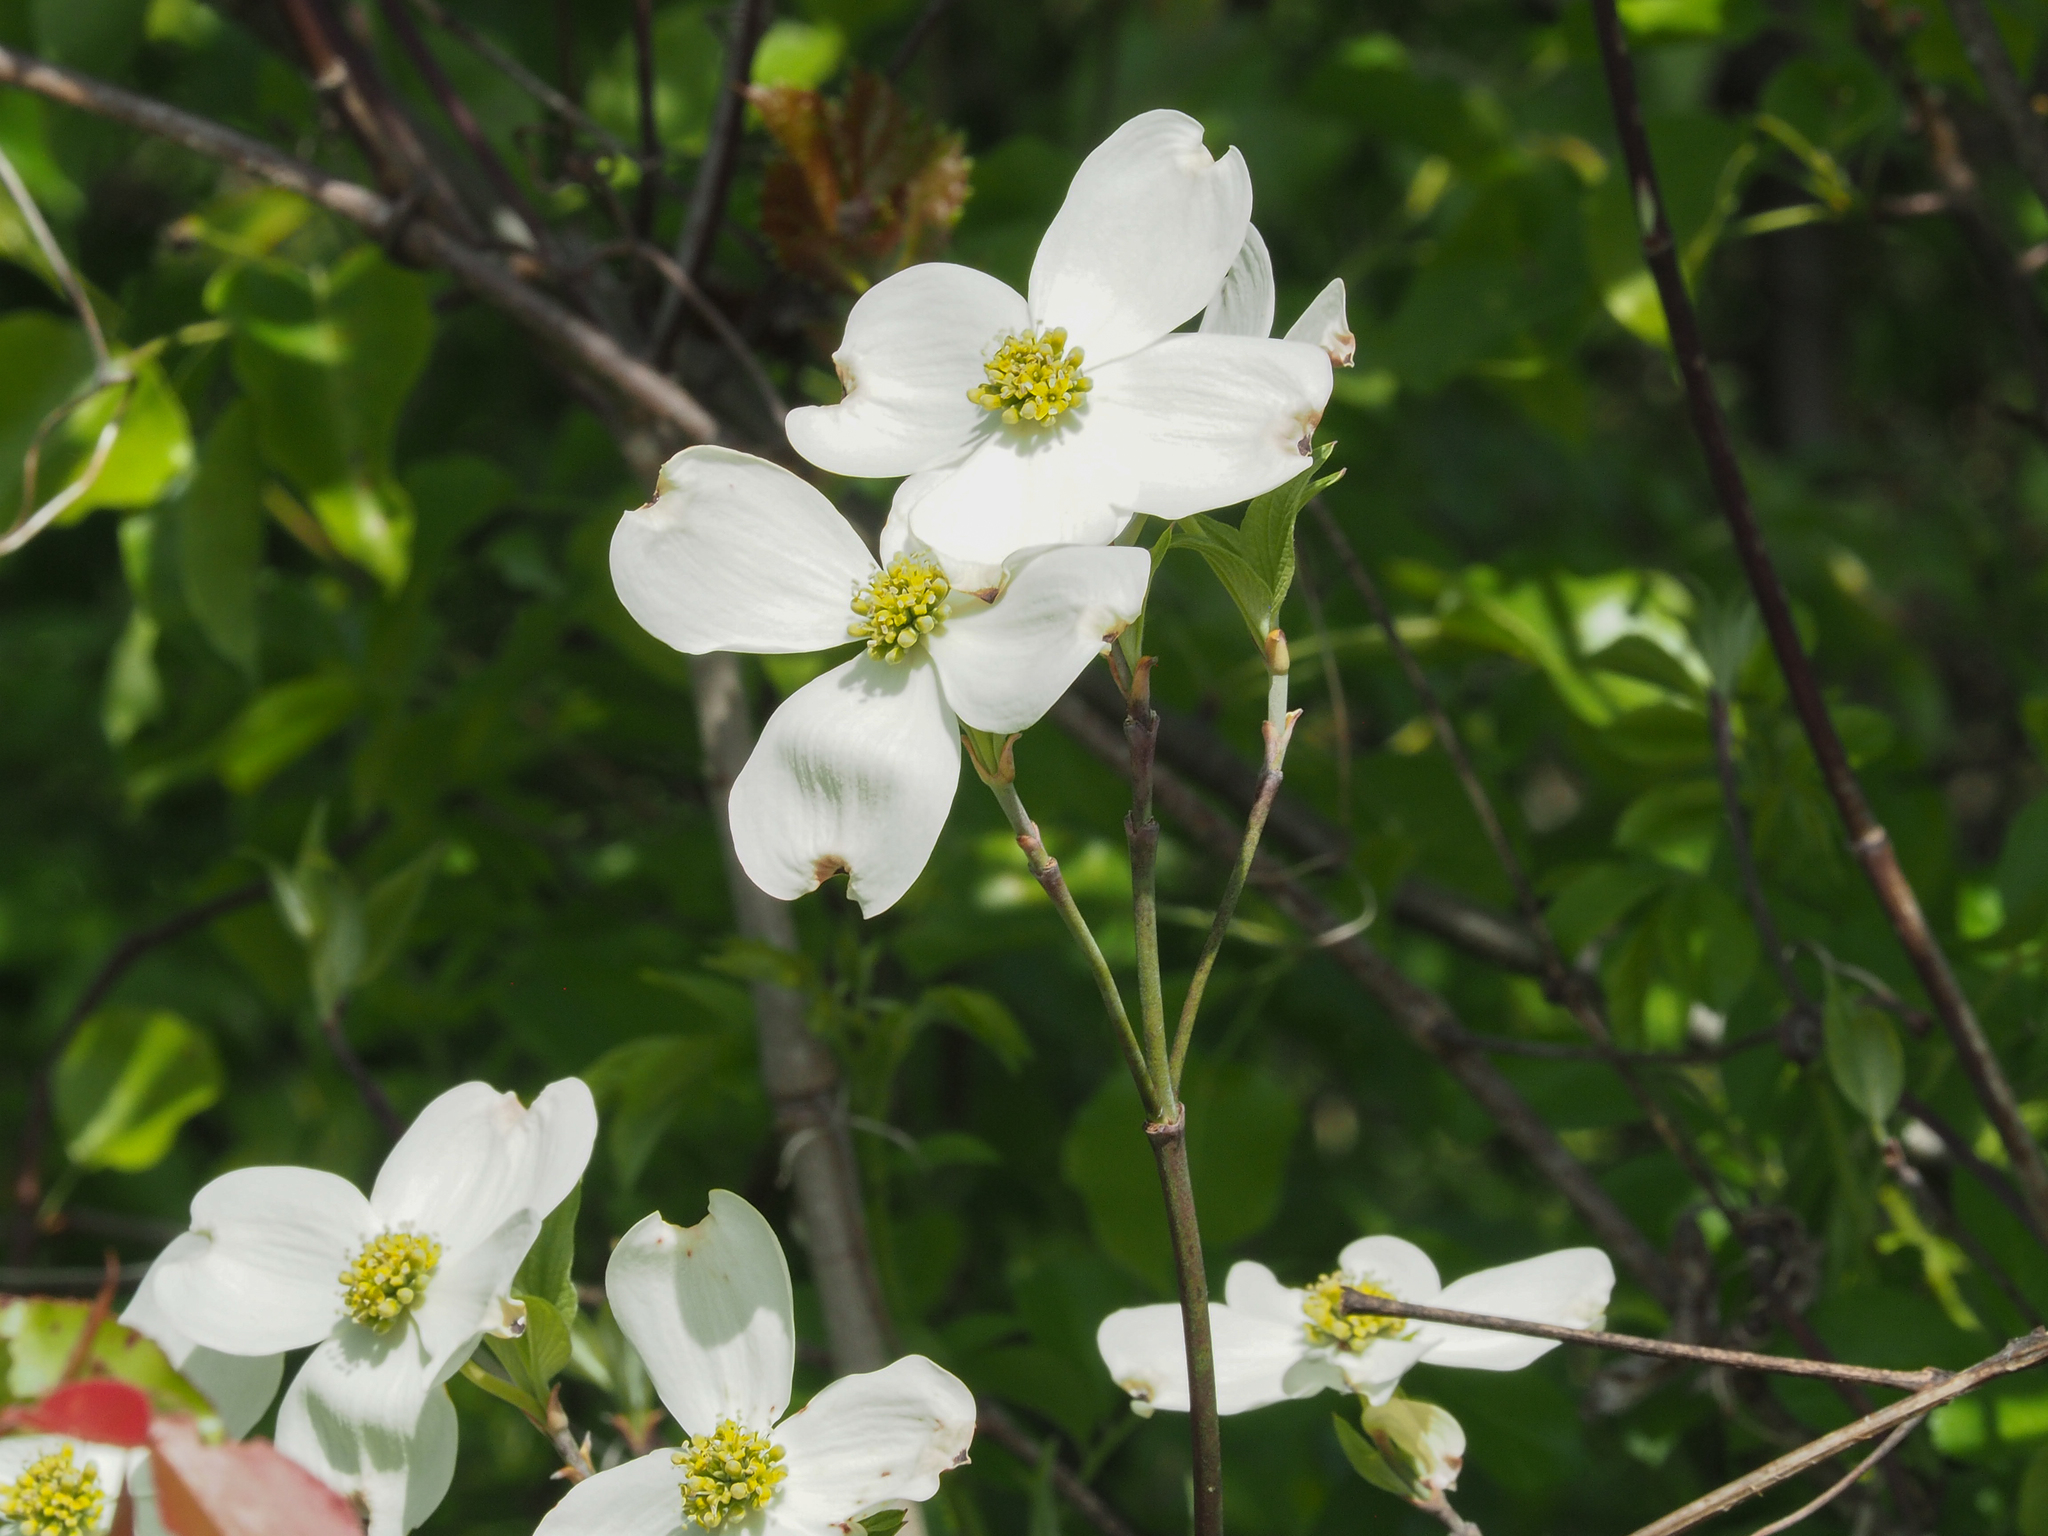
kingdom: Plantae
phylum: Tracheophyta
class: Magnoliopsida
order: Cornales
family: Cornaceae
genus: Cornus
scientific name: Cornus florida
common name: Flowering dogwood
